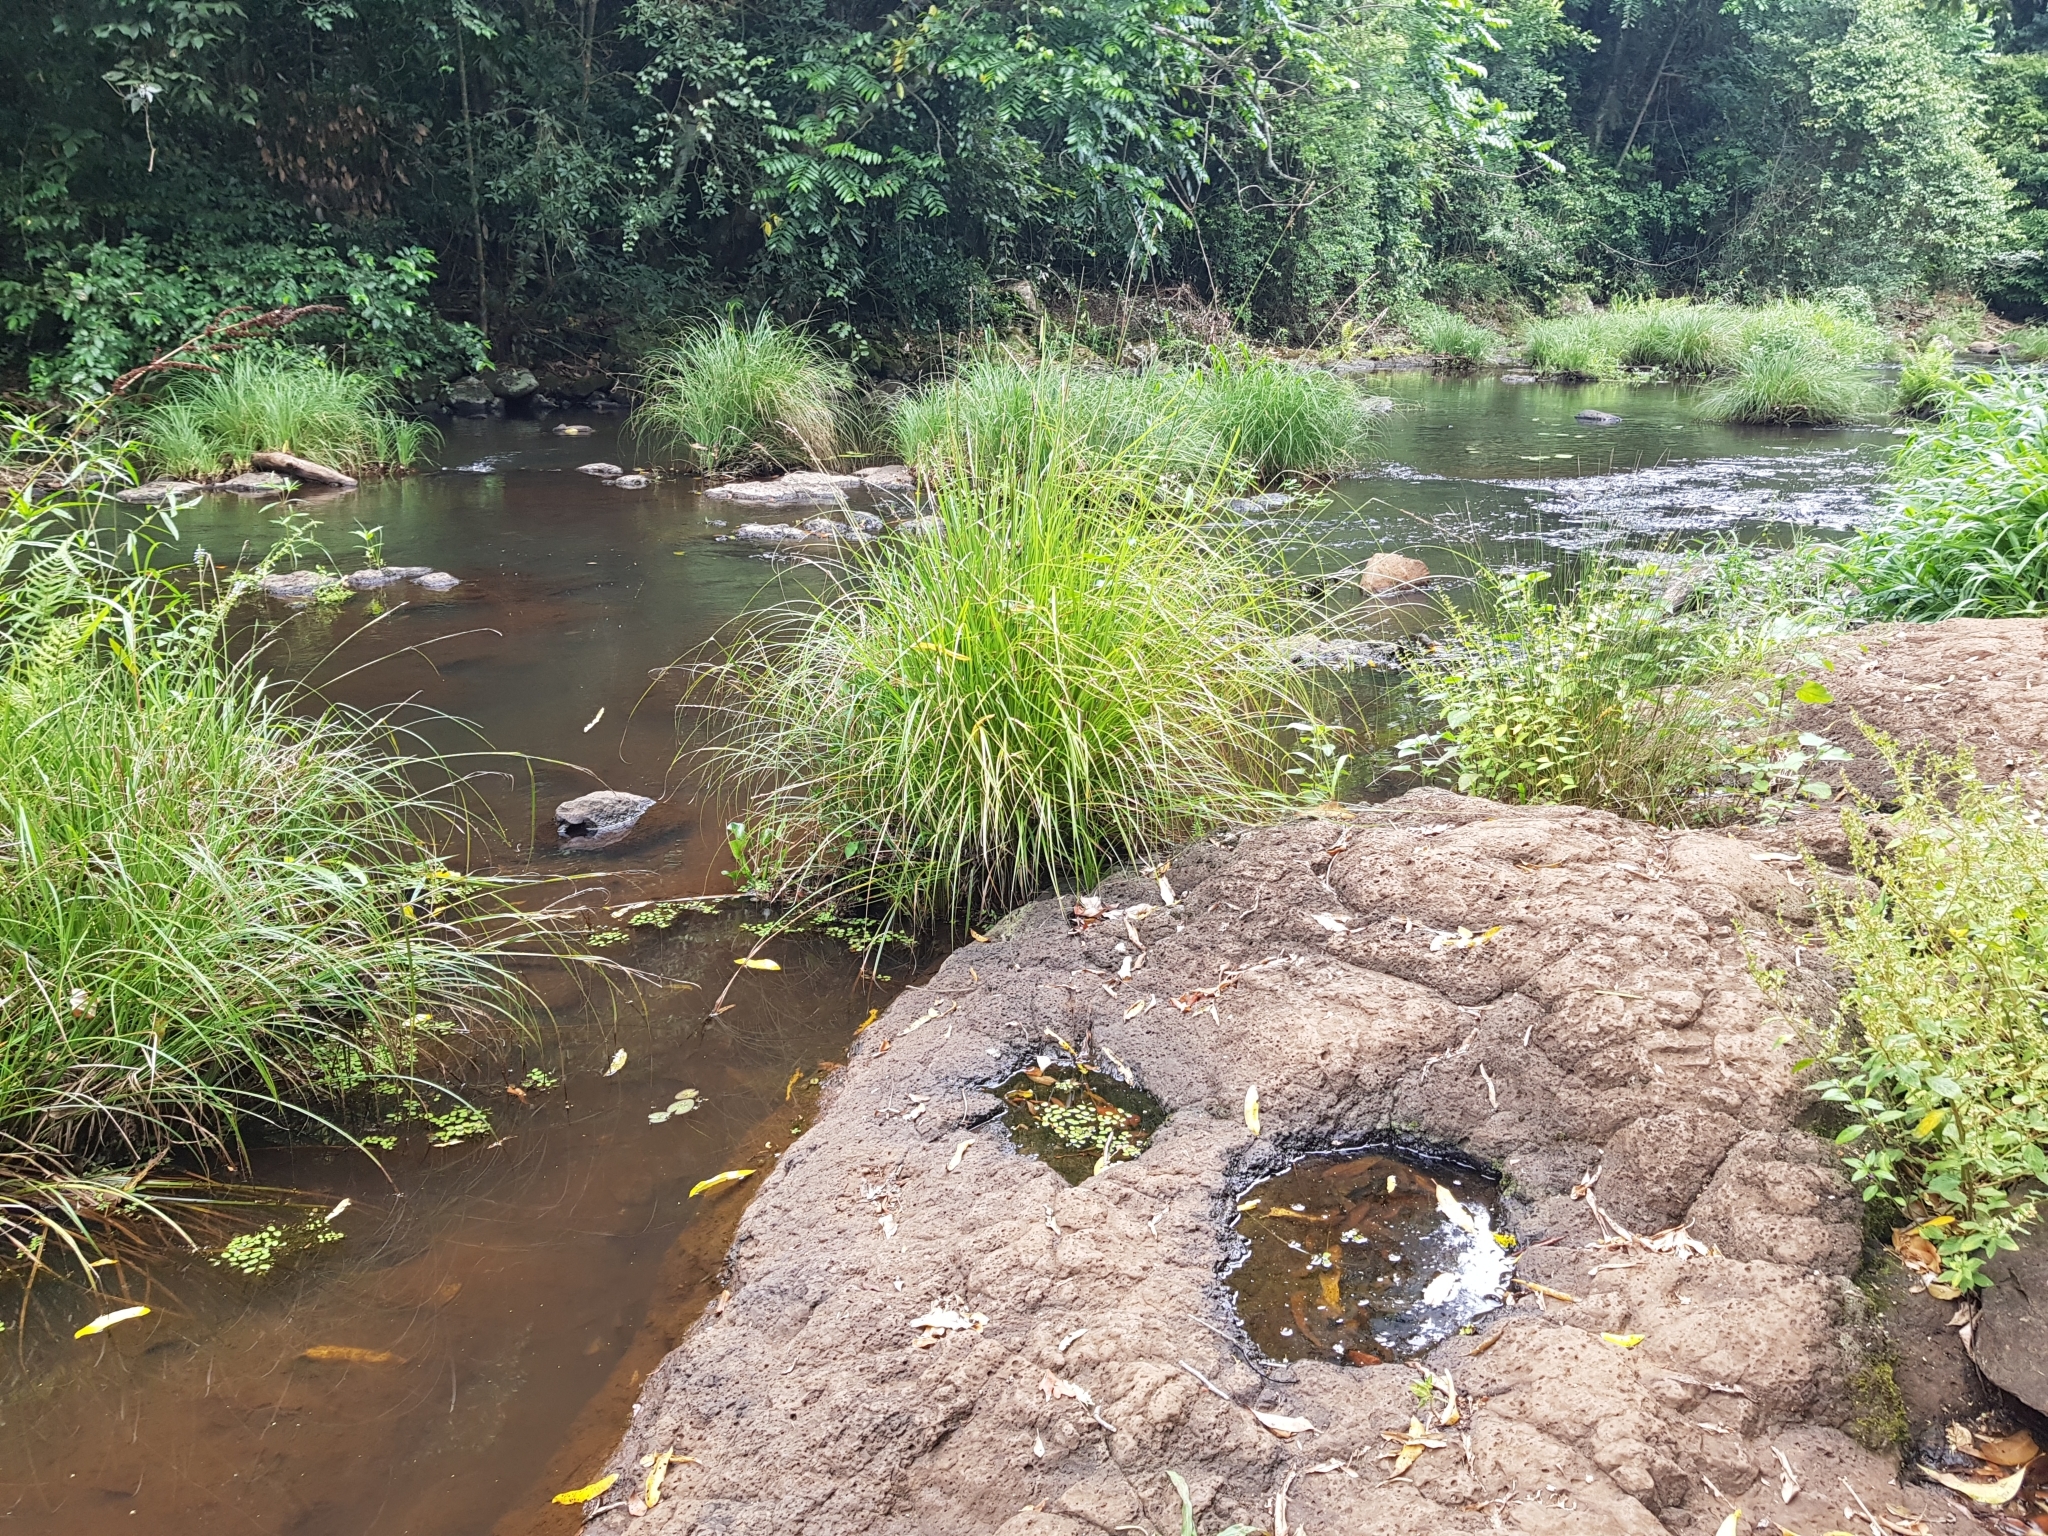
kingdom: Plantae
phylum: Tracheophyta
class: Polypodiopsida
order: Salviniales
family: Salviniaceae
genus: Salvinia
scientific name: Salvinia molesta
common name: Kariba weed
